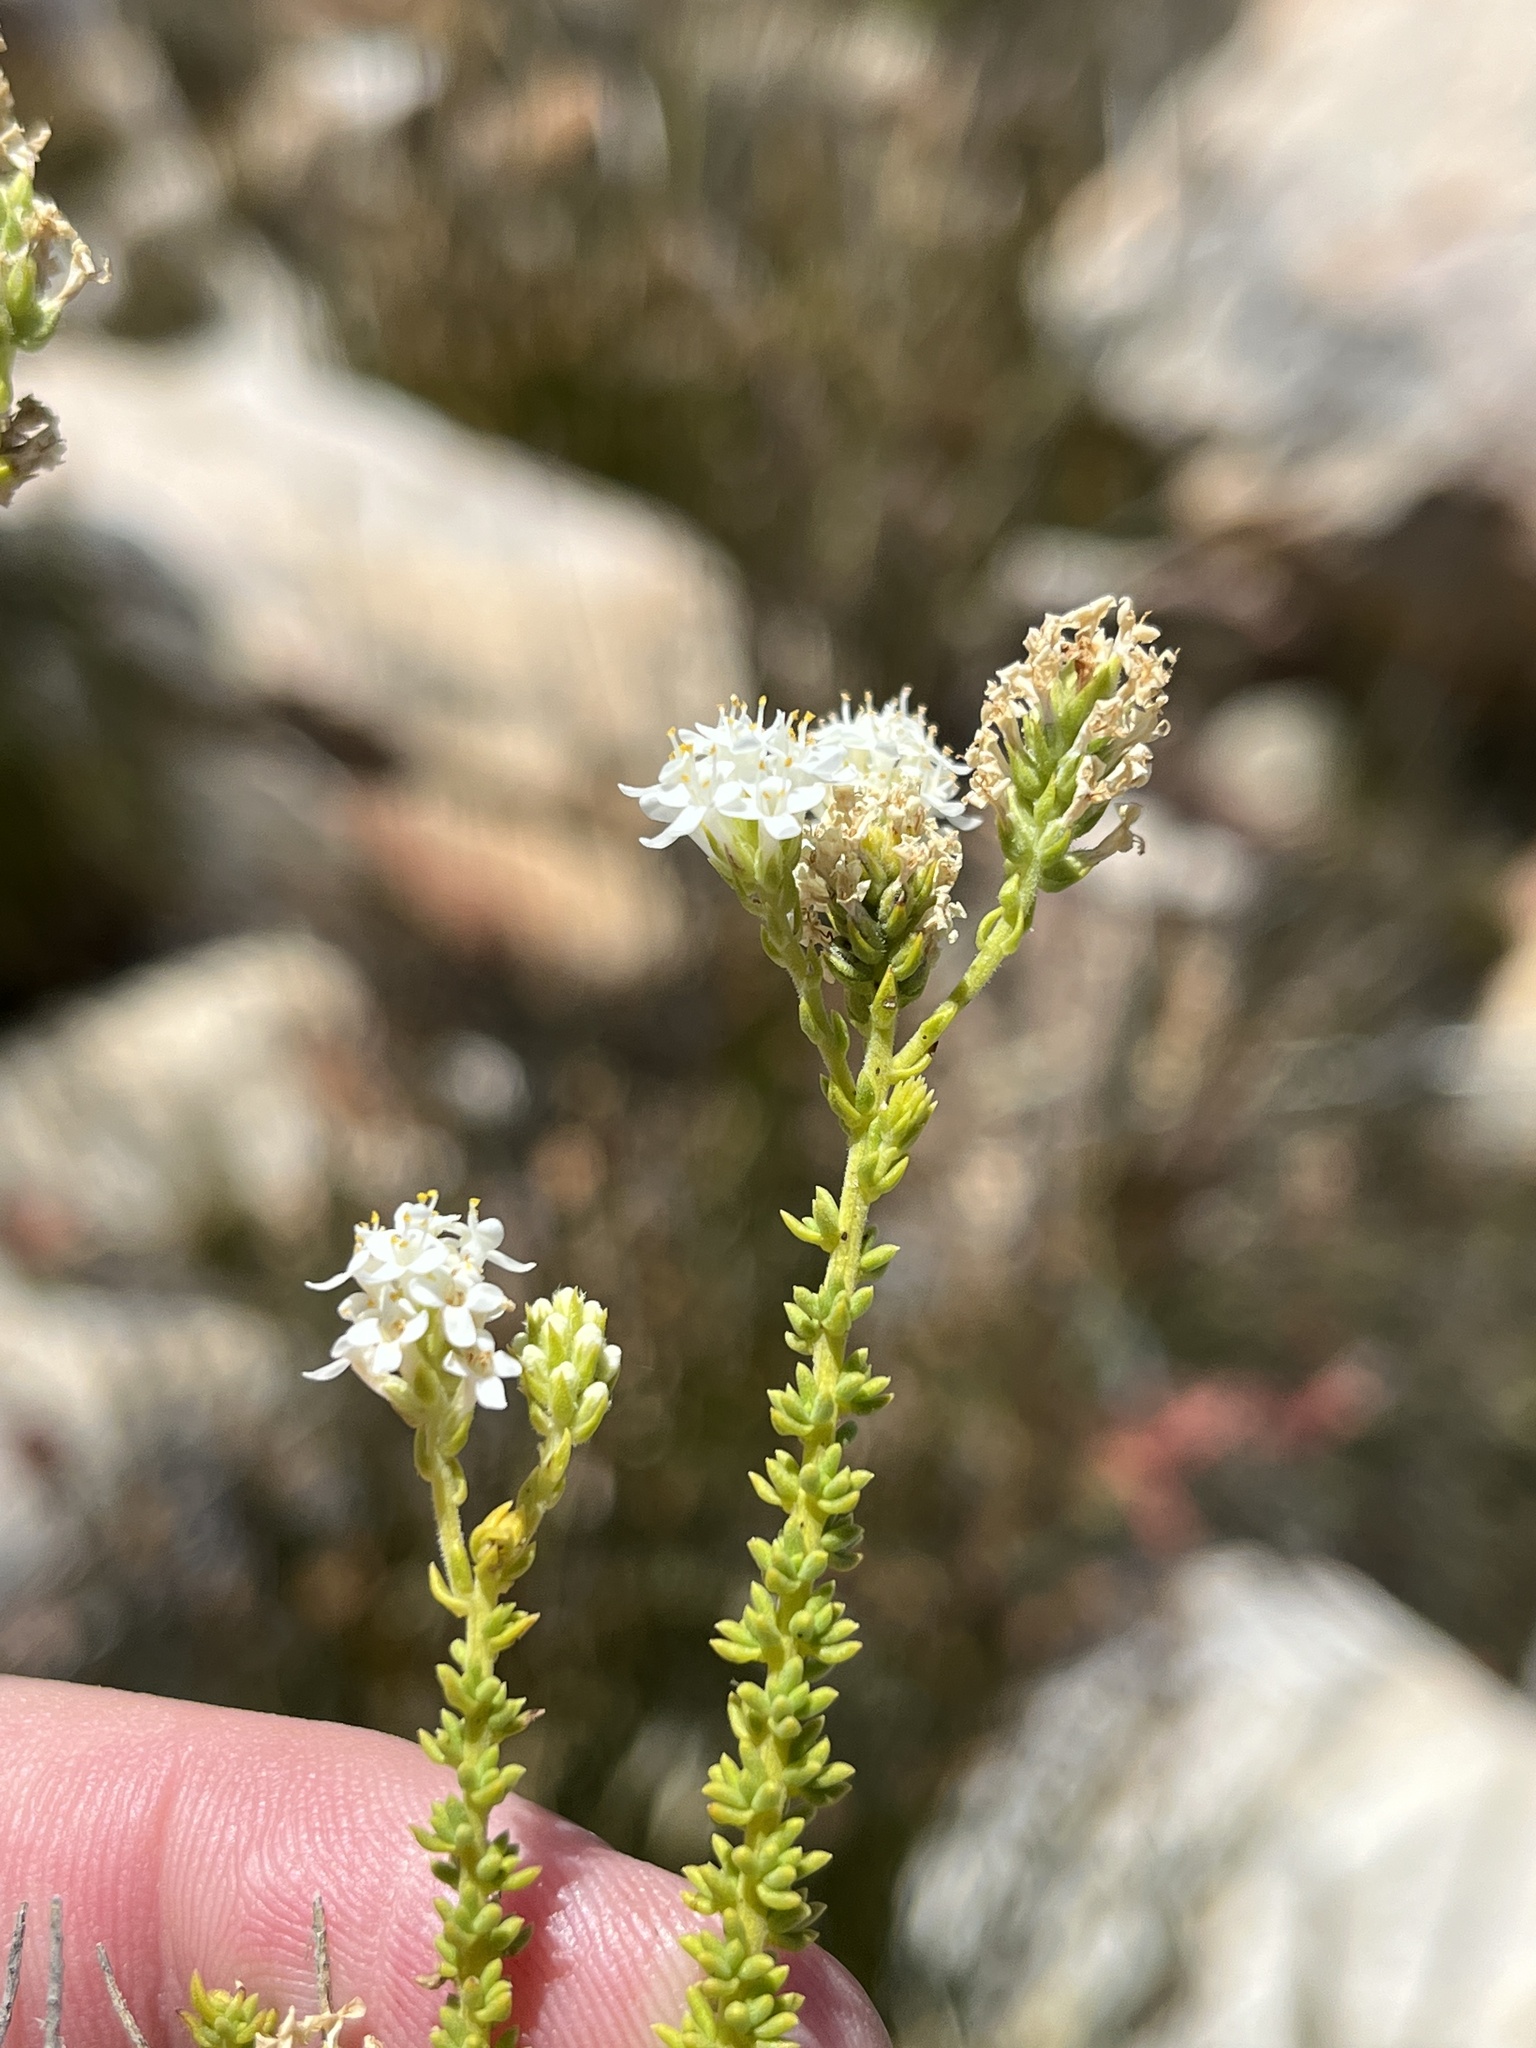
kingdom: Plantae
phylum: Tracheophyta
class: Magnoliopsida
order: Lamiales
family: Scrophulariaceae
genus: Selago
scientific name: Selago myriophylla
